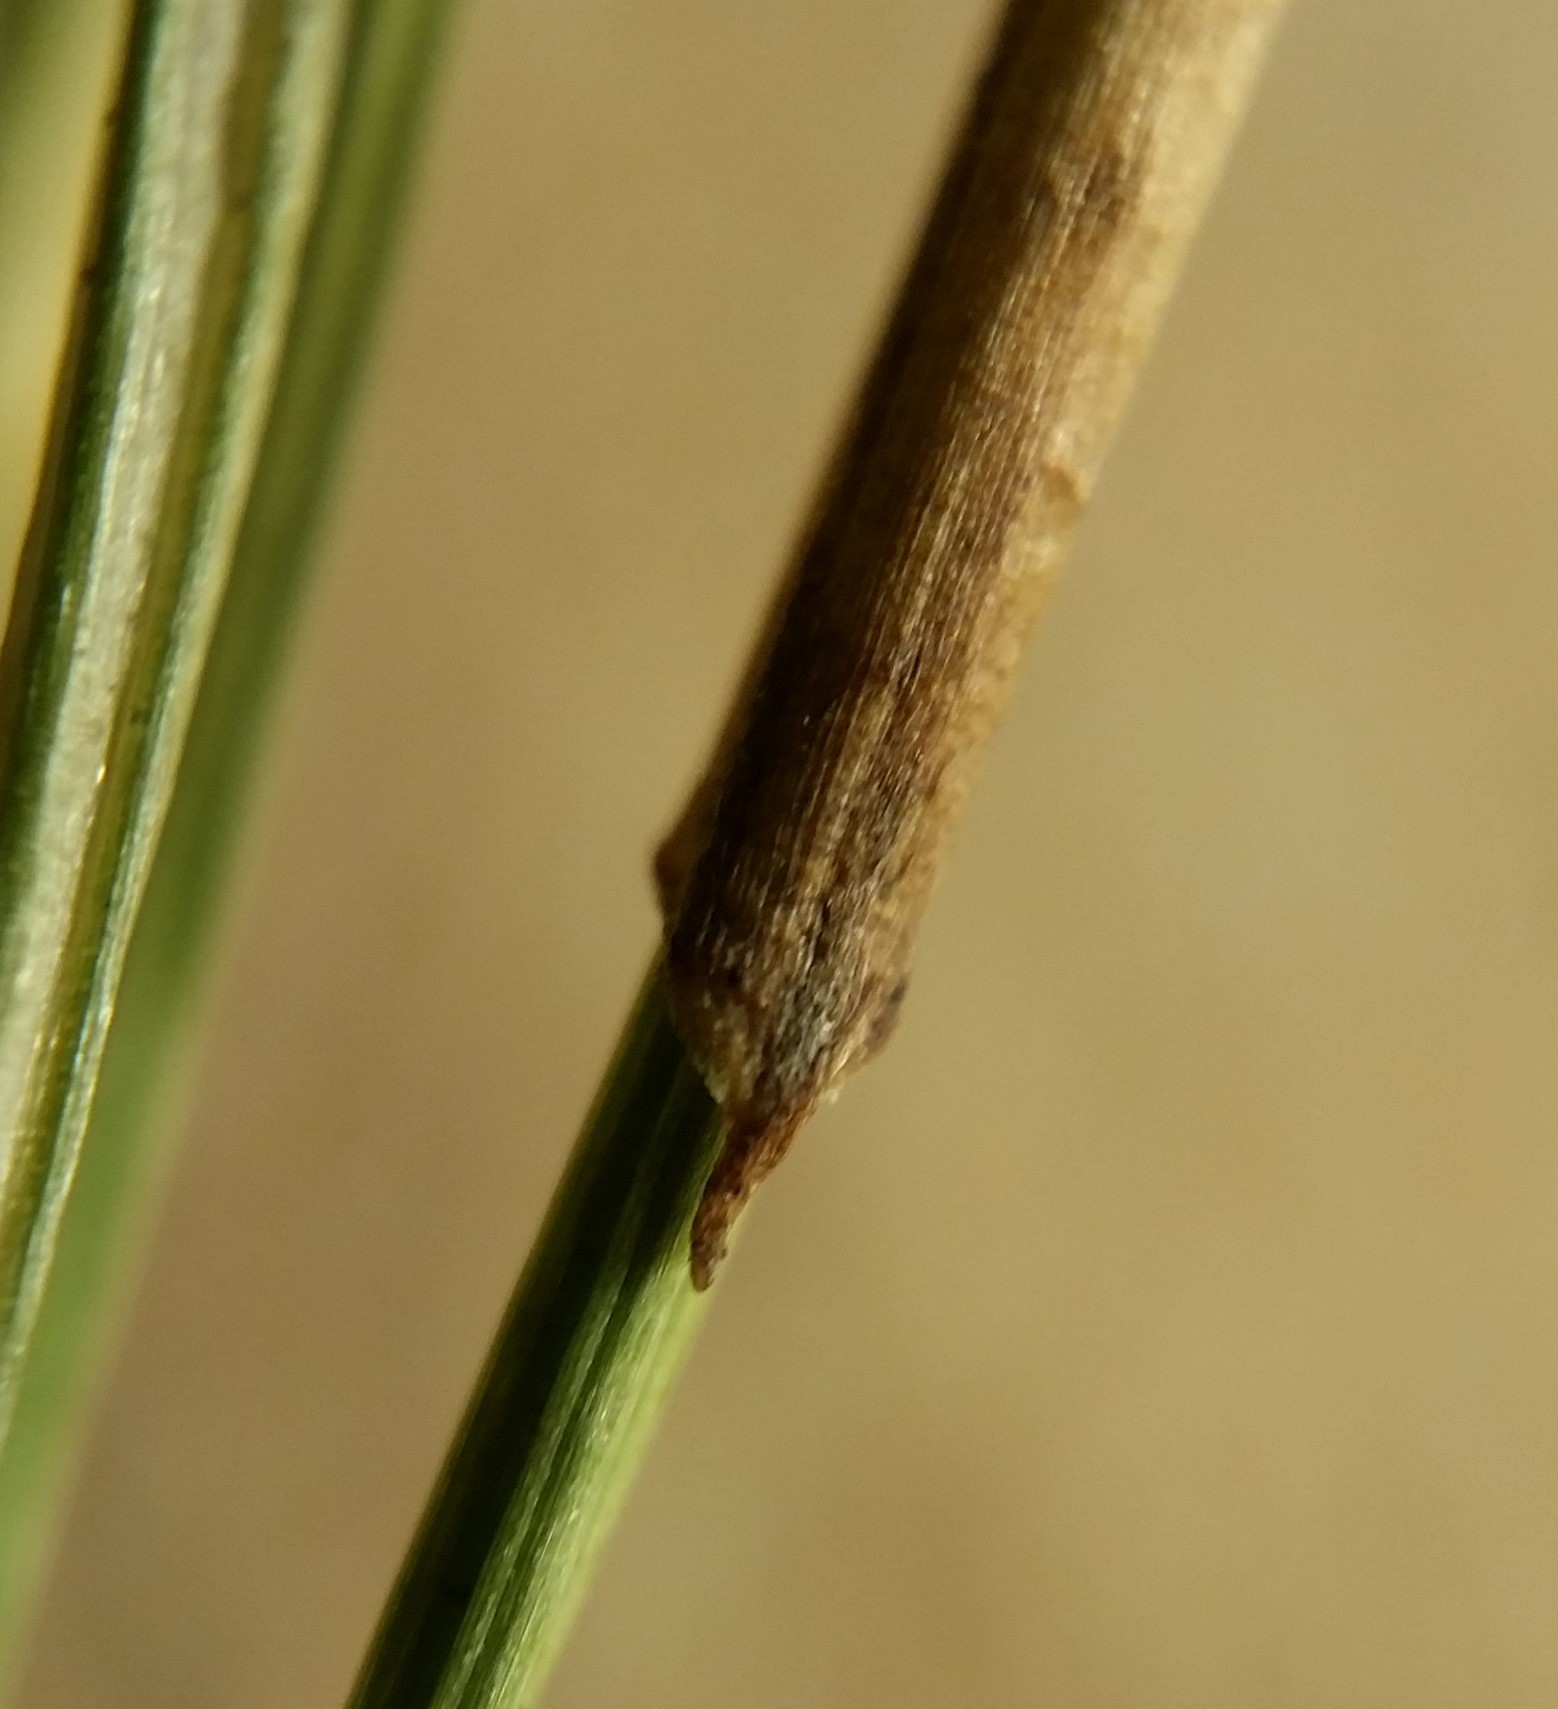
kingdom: Plantae
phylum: Tracheophyta
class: Liliopsida
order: Poales
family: Cyperaceae
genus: Eleocharis
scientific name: Eleocharis tenuis
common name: Dog's hair
